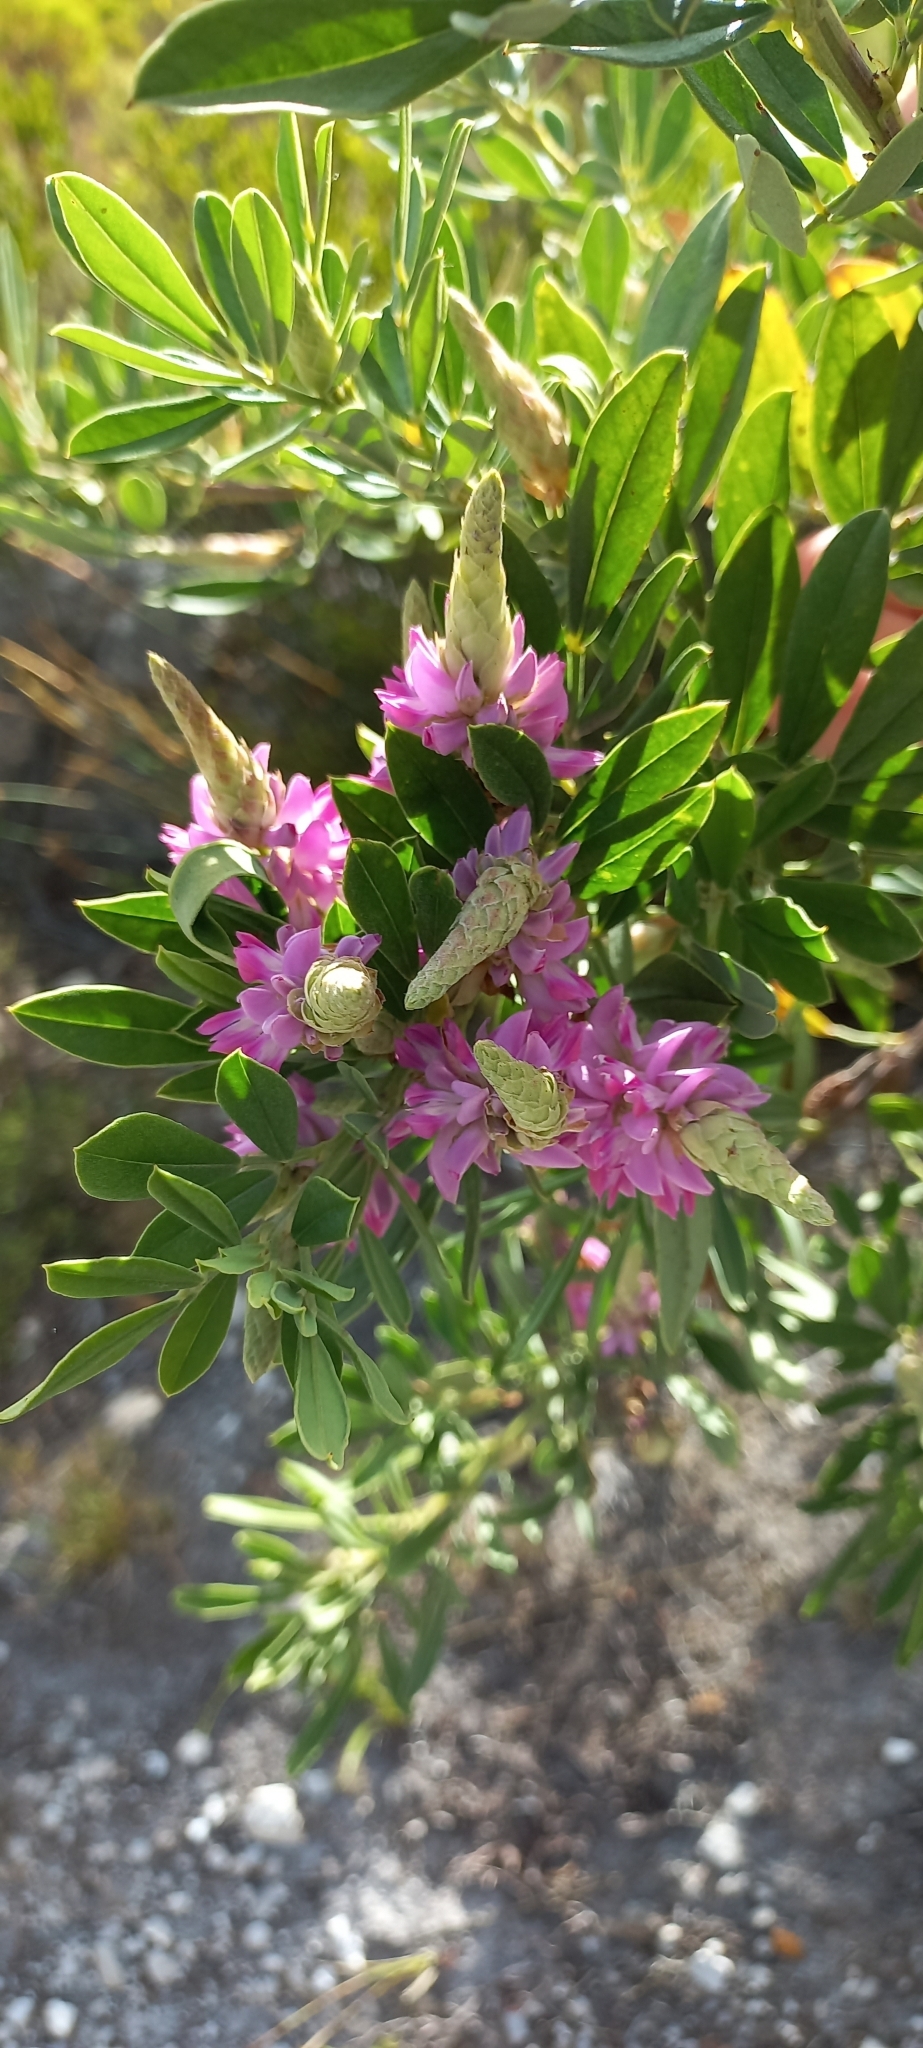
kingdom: Plantae
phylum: Tracheophyta
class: Magnoliopsida
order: Fabales
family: Fabaceae
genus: Indigofera
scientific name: Indigofera cytisoides
